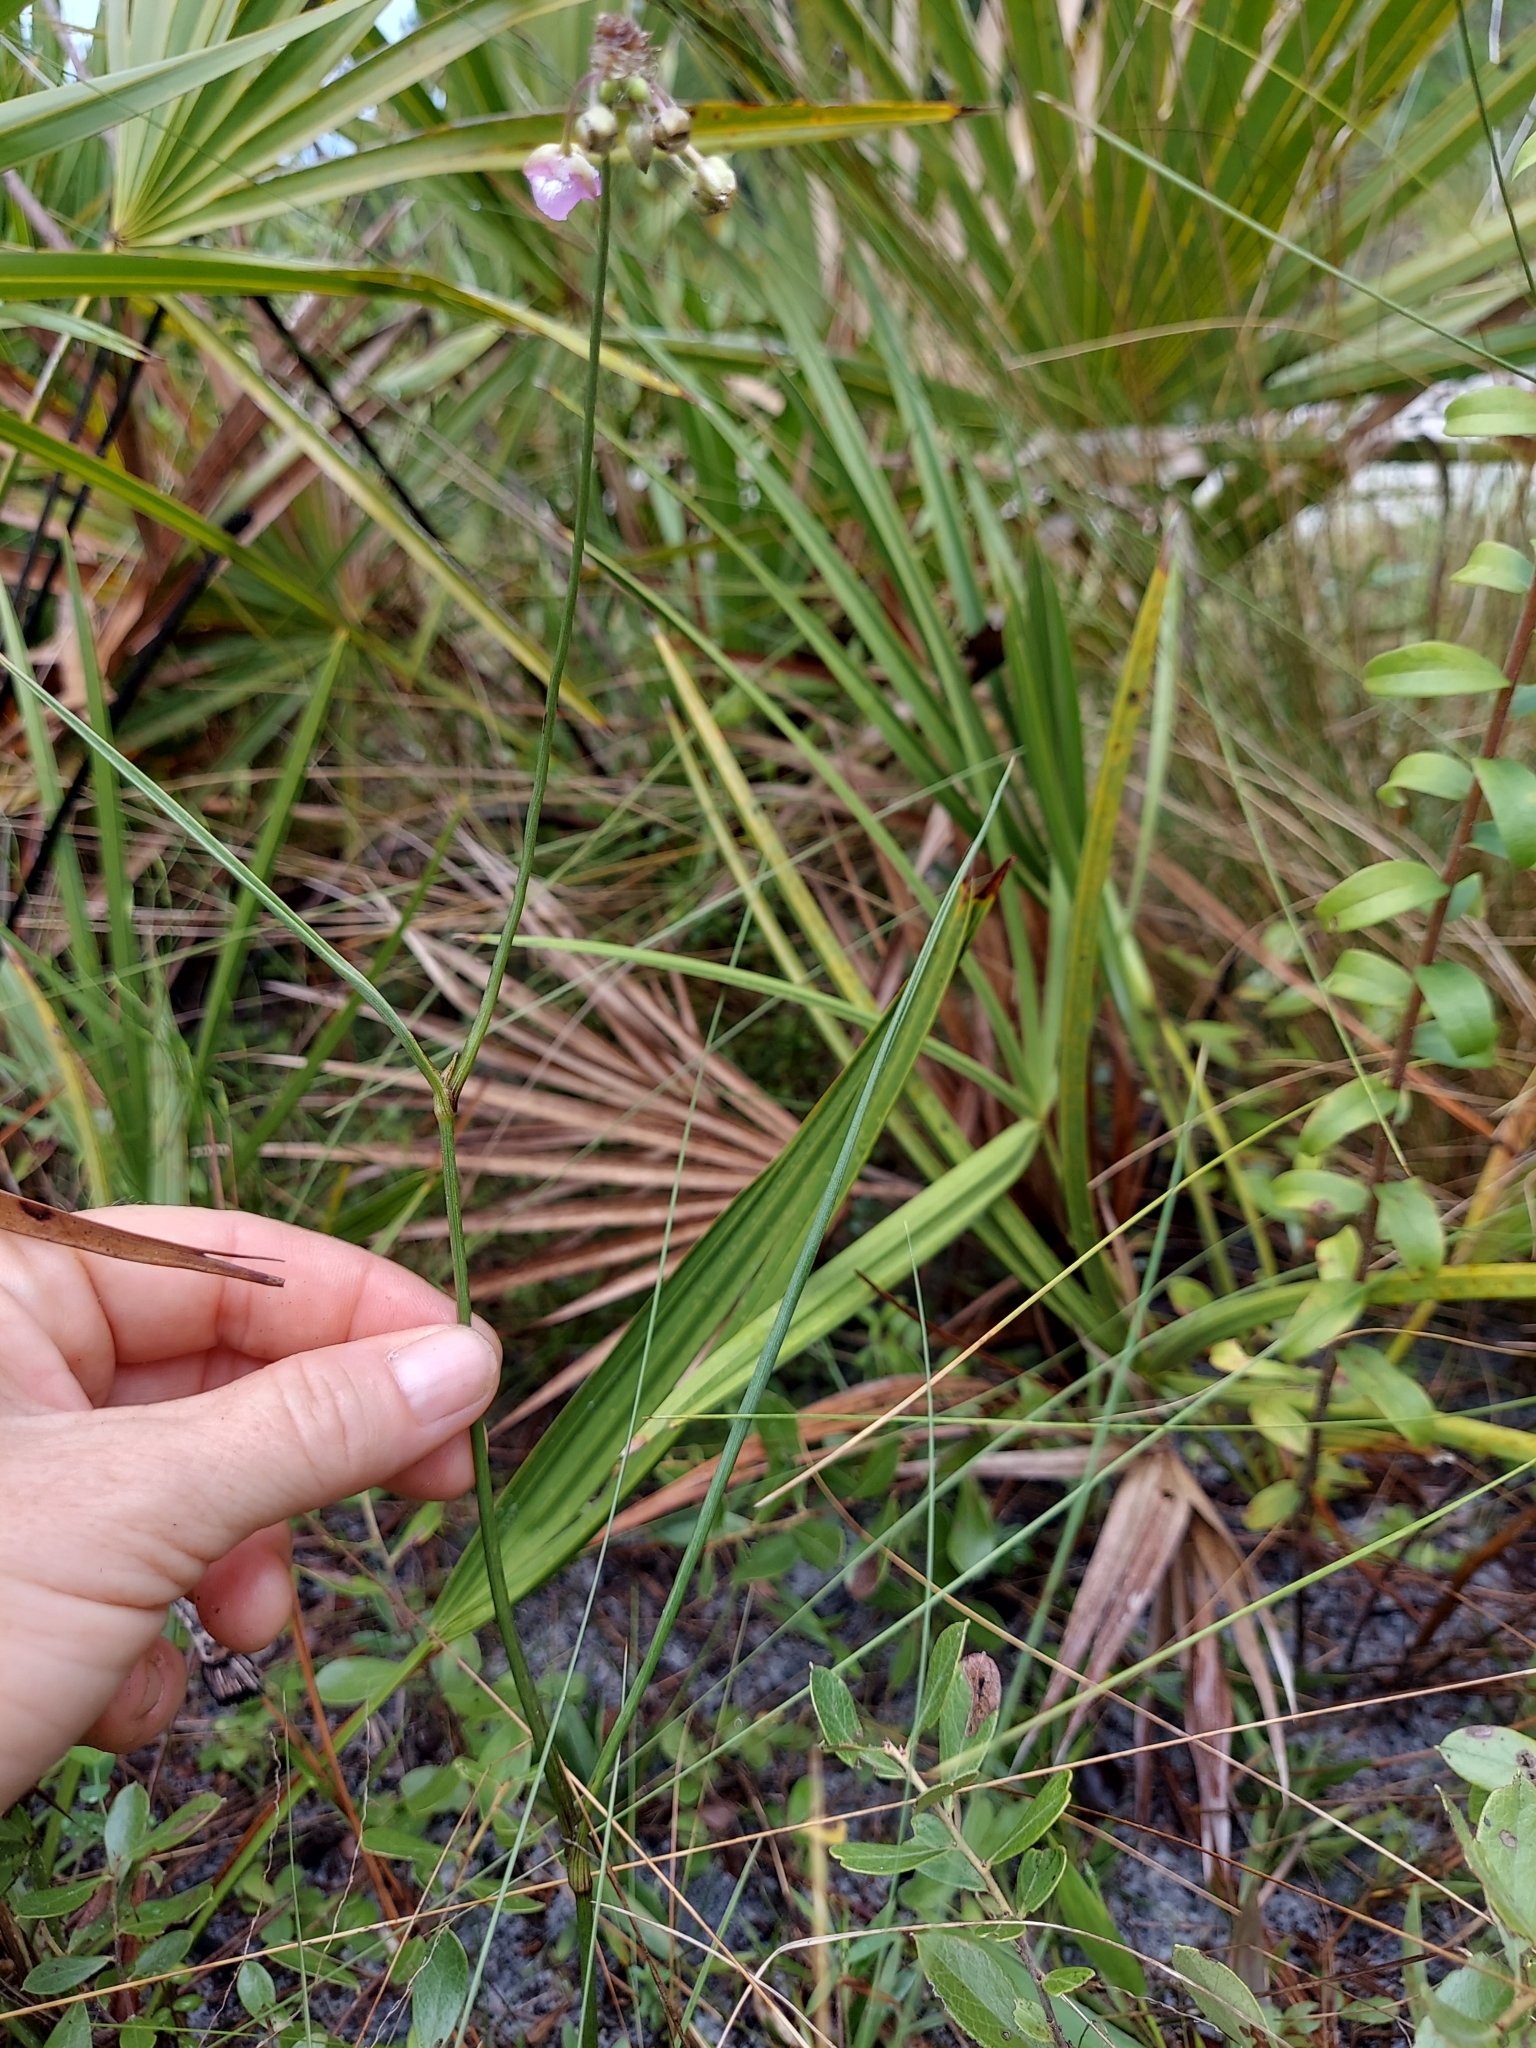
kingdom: Plantae
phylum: Tracheophyta
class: Liliopsida
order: Commelinales
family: Commelinaceae
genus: Callisia
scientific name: Callisia ornata
